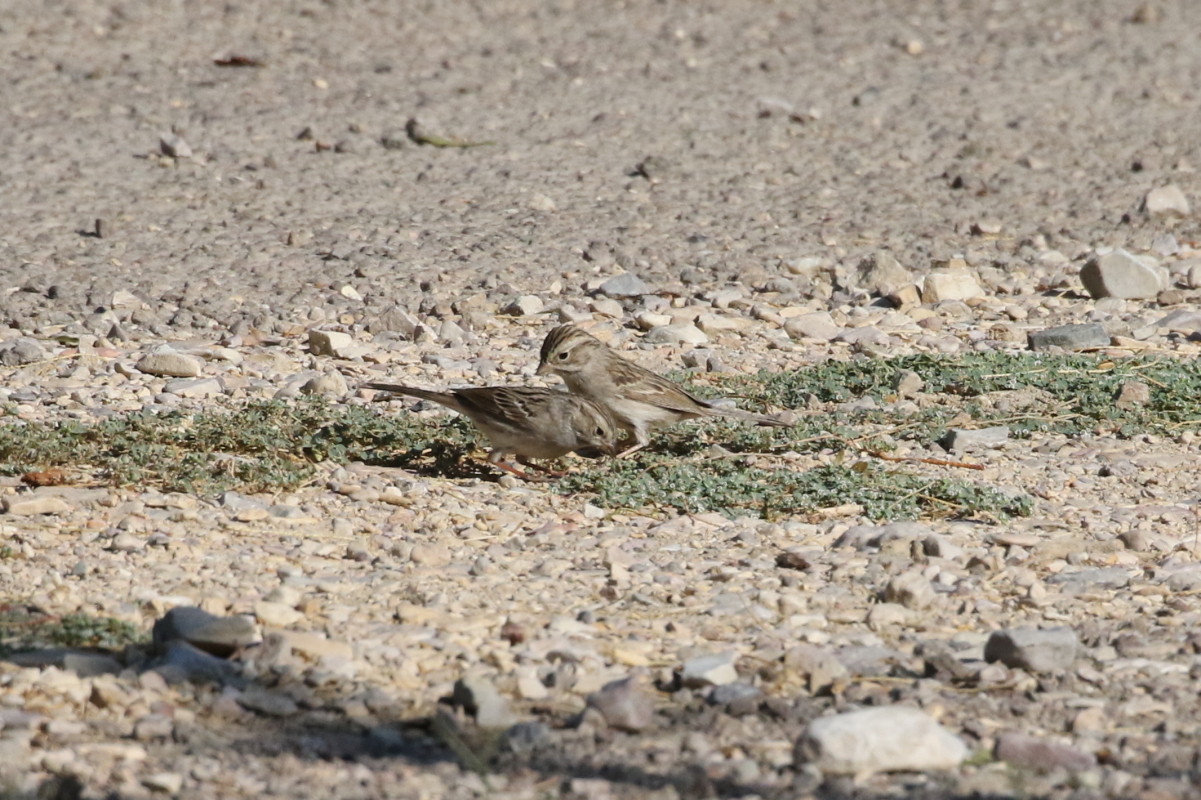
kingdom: Animalia
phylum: Chordata
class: Aves
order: Passeriformes
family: Passerellidae
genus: Spizella
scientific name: Spizella breweri
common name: Brewer's sparrow
